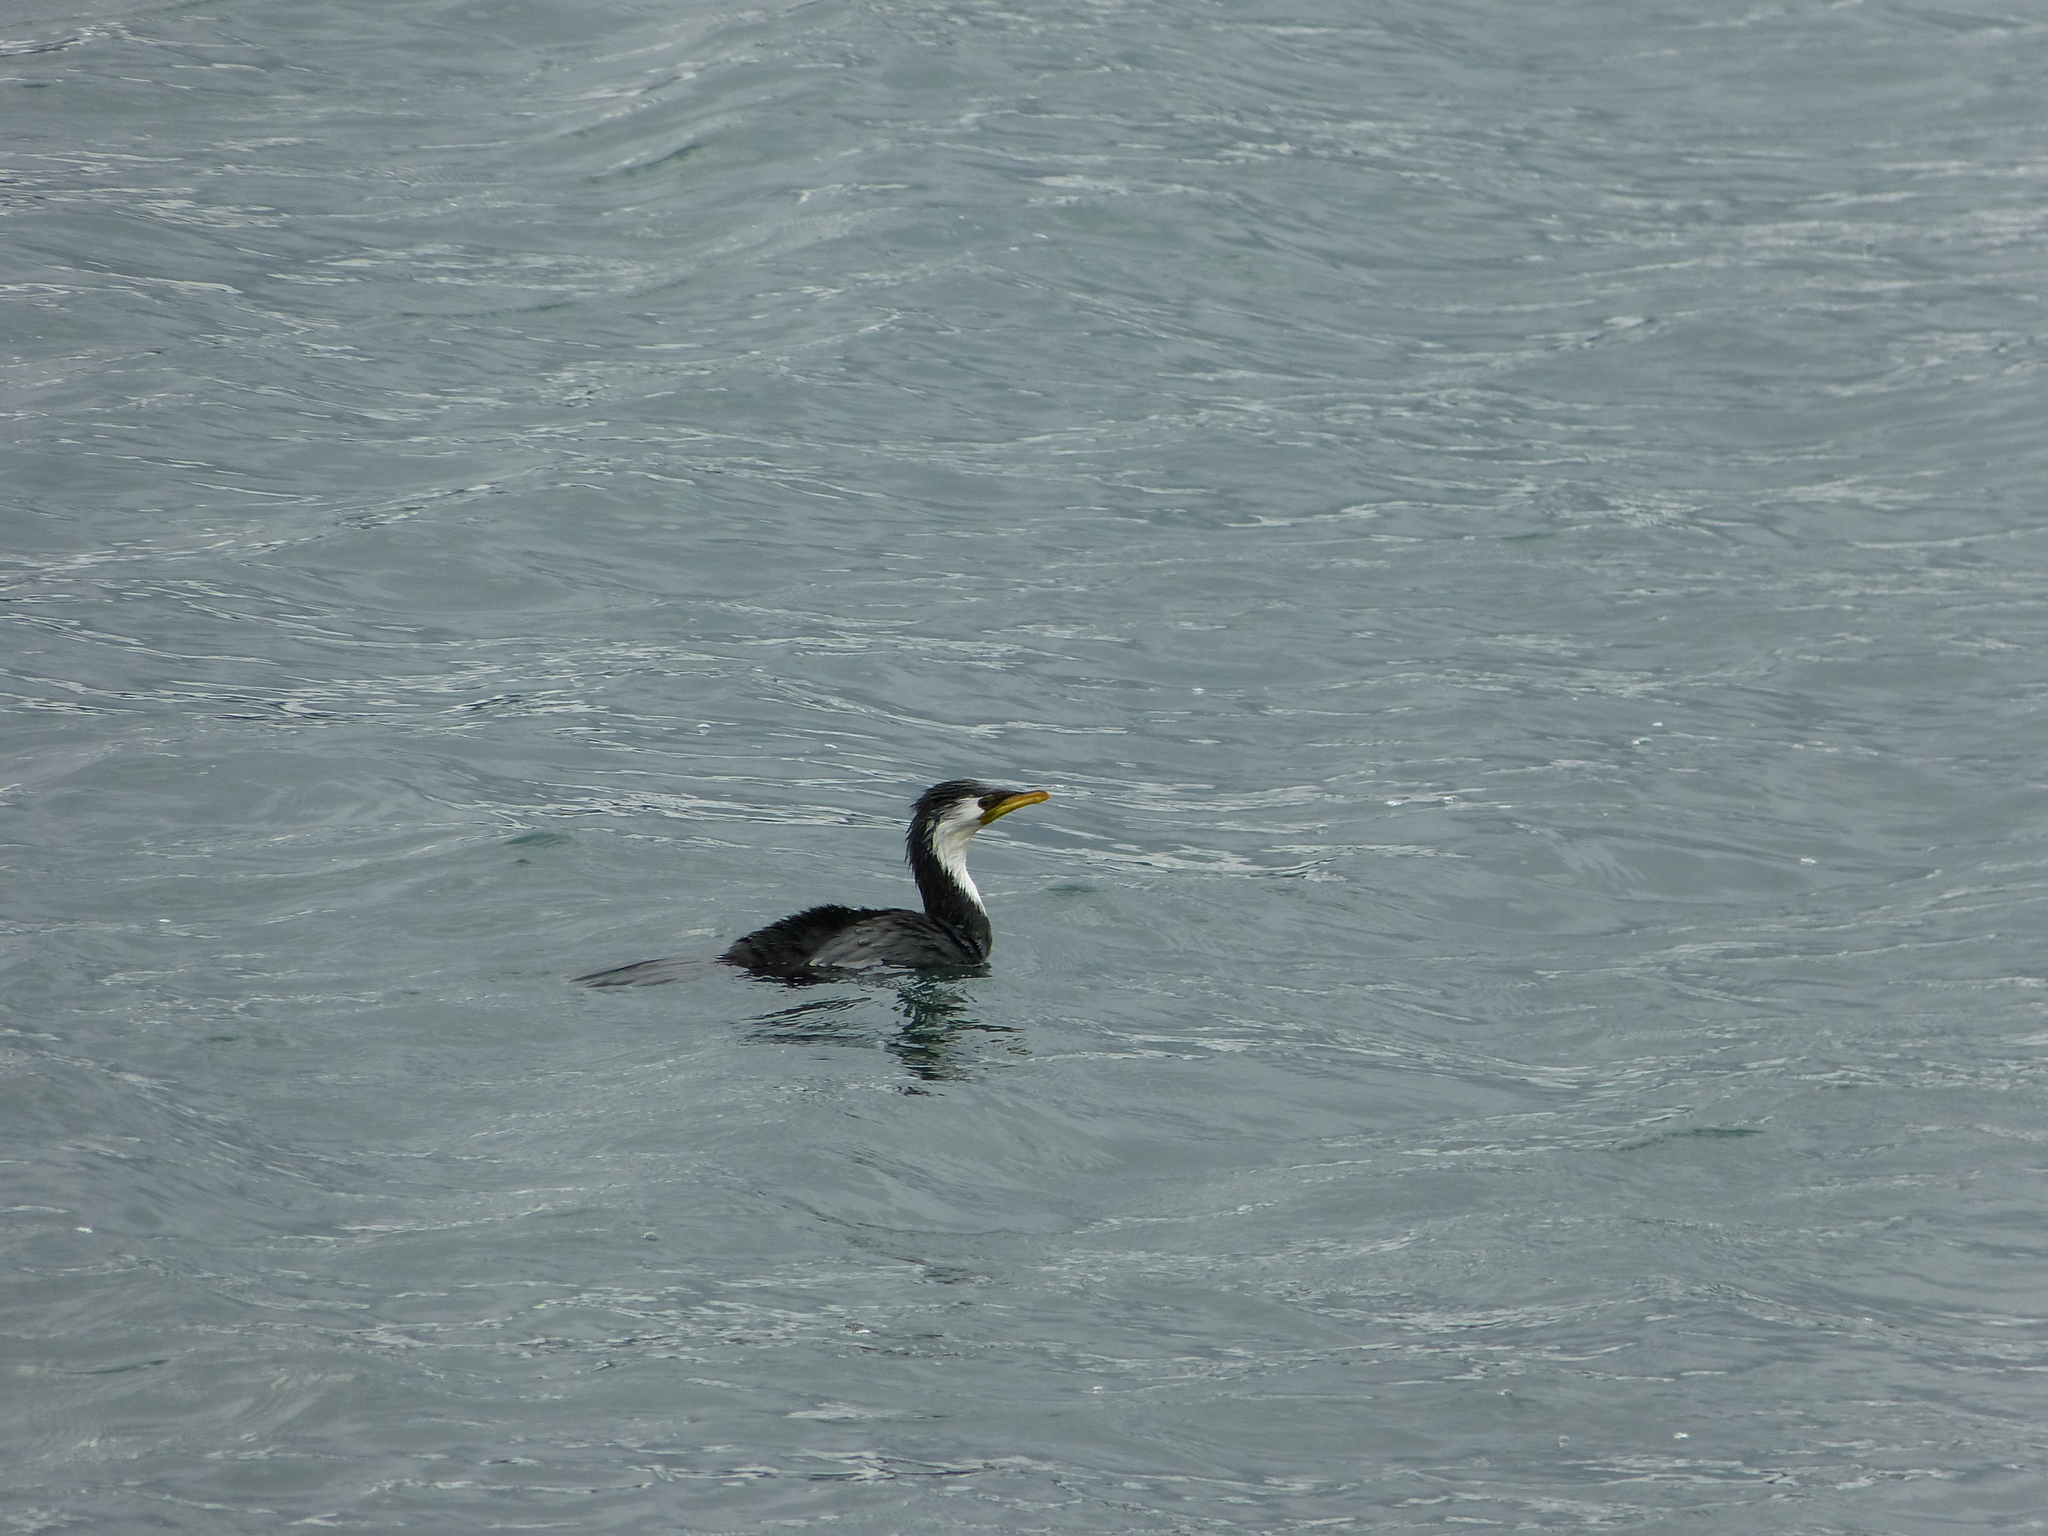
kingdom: Animalia
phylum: Chordata
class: Aves
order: Suliformes
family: Phalacrocoracidae
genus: Microcarbo
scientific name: Microcarbo melanoleucos
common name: Little pied cormorant
